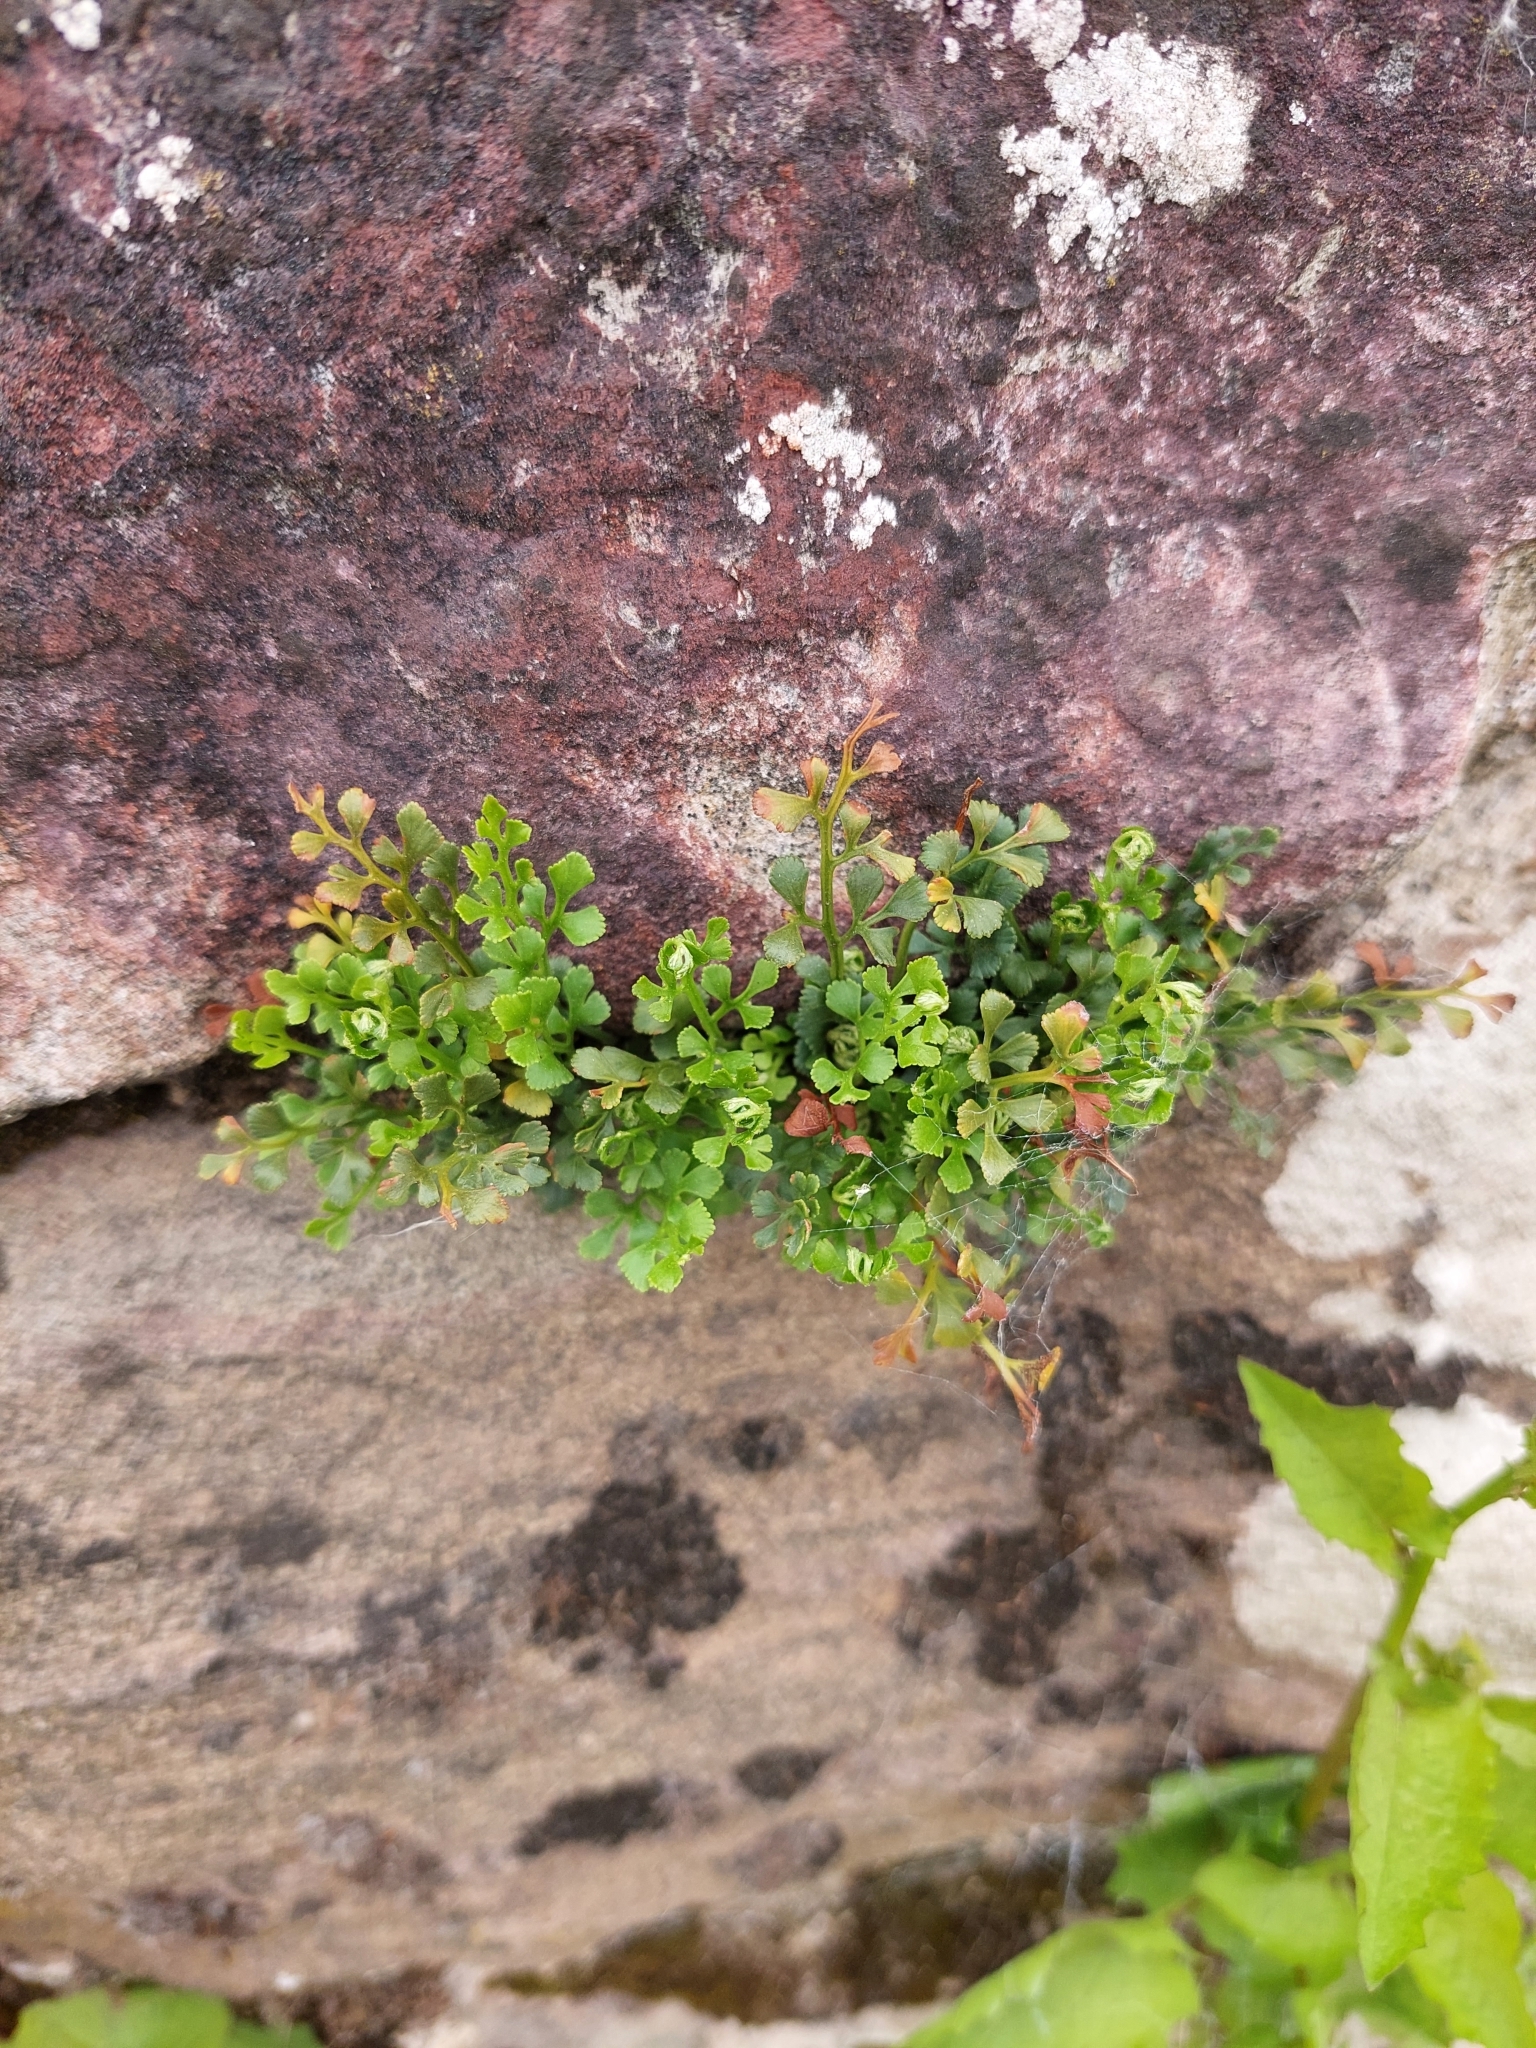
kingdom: Plantae
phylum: Tracheophyta
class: Polypodiopsida
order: Polypodiales
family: Aspleniaceae
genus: Asplenium
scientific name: Asplenium ruta-muraria
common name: Wall-rue
